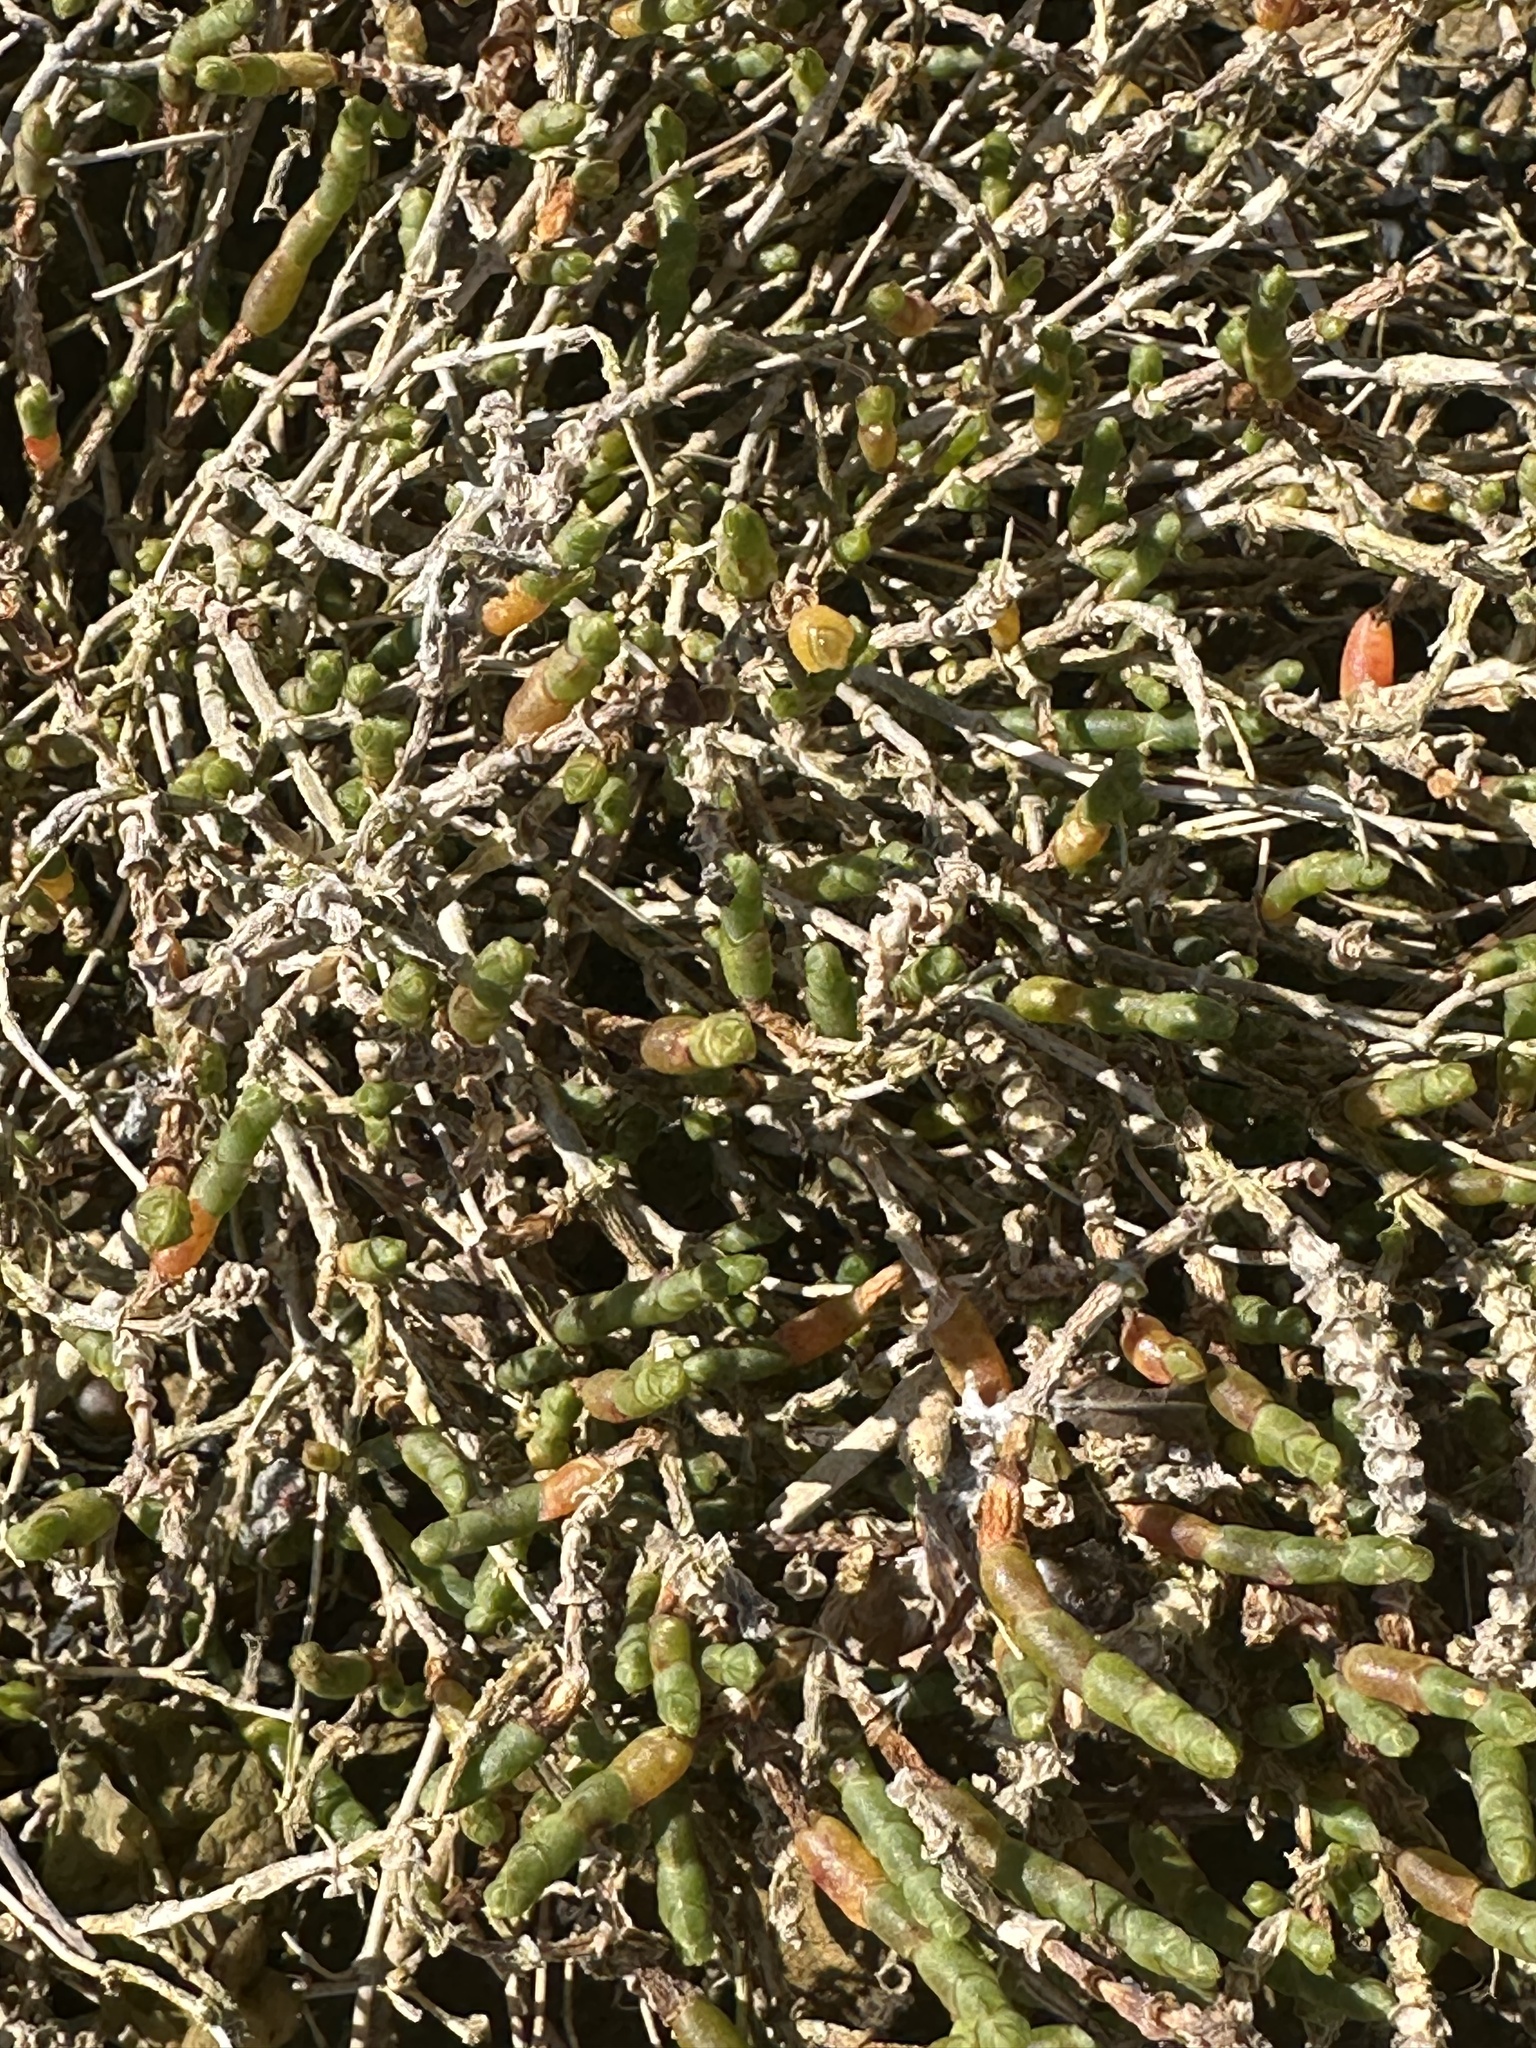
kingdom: Plantae
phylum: Tracheophyta
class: Magnoliopsida
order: Caryophyllales
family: Amaranthaceae
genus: Salicornia
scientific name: Salicornia quinqueflora
